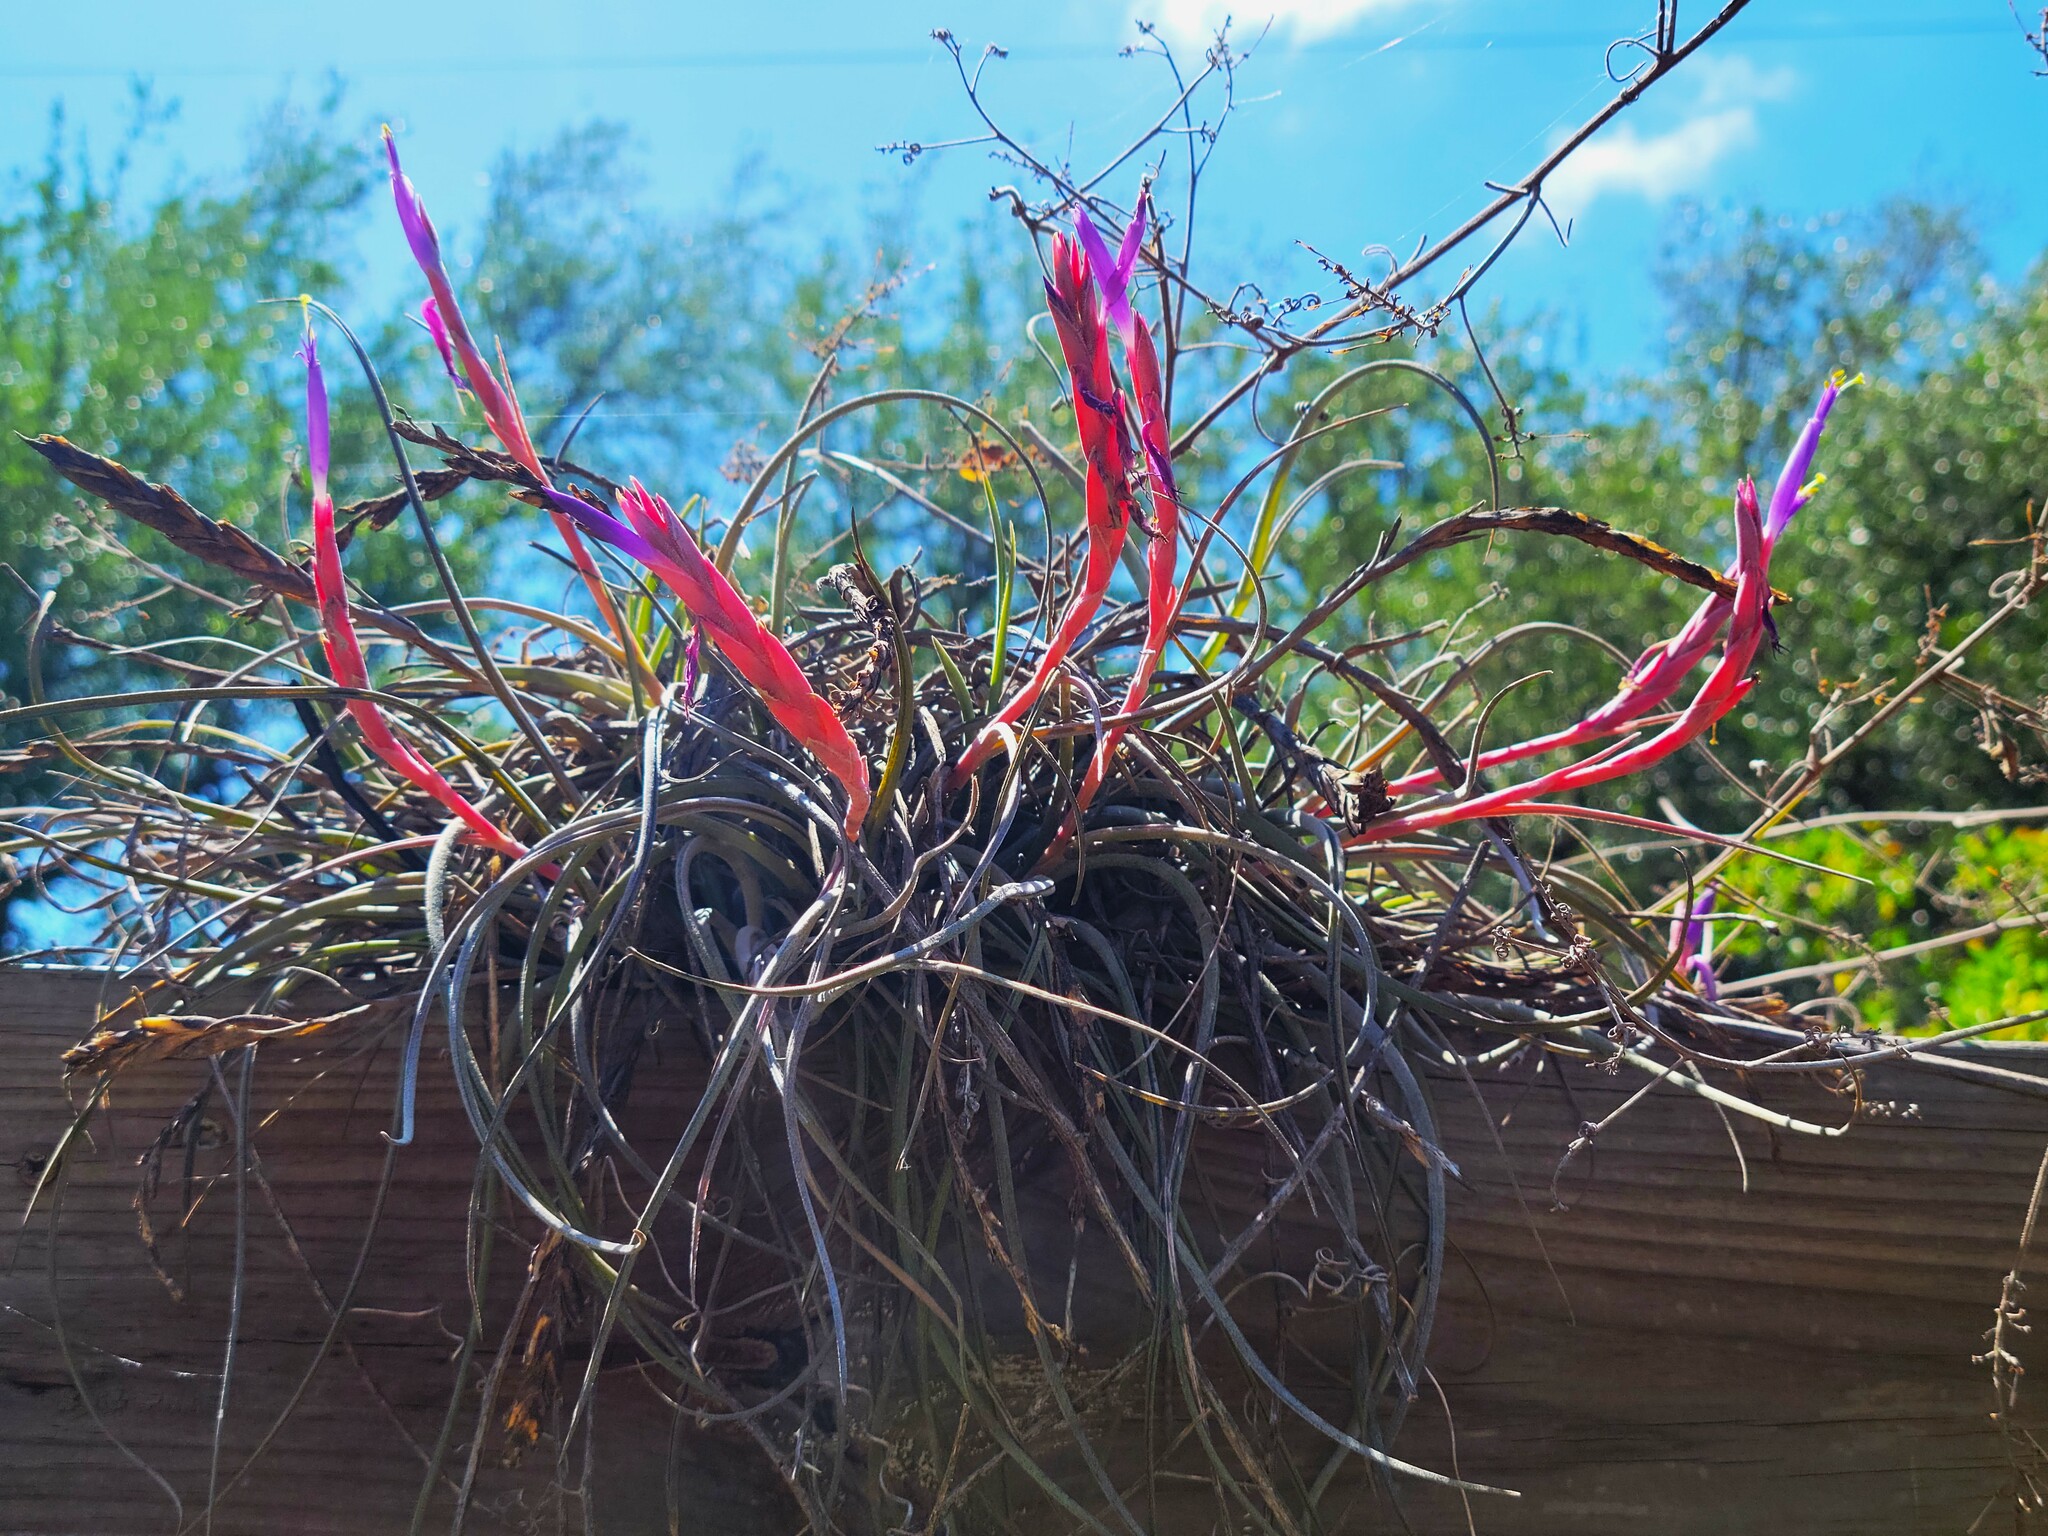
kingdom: Plantae
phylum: Tracheophyta
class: Liliopsida
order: Poales
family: Bromeliaceae
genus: Tillandsia
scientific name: Tillandsia baileyi
